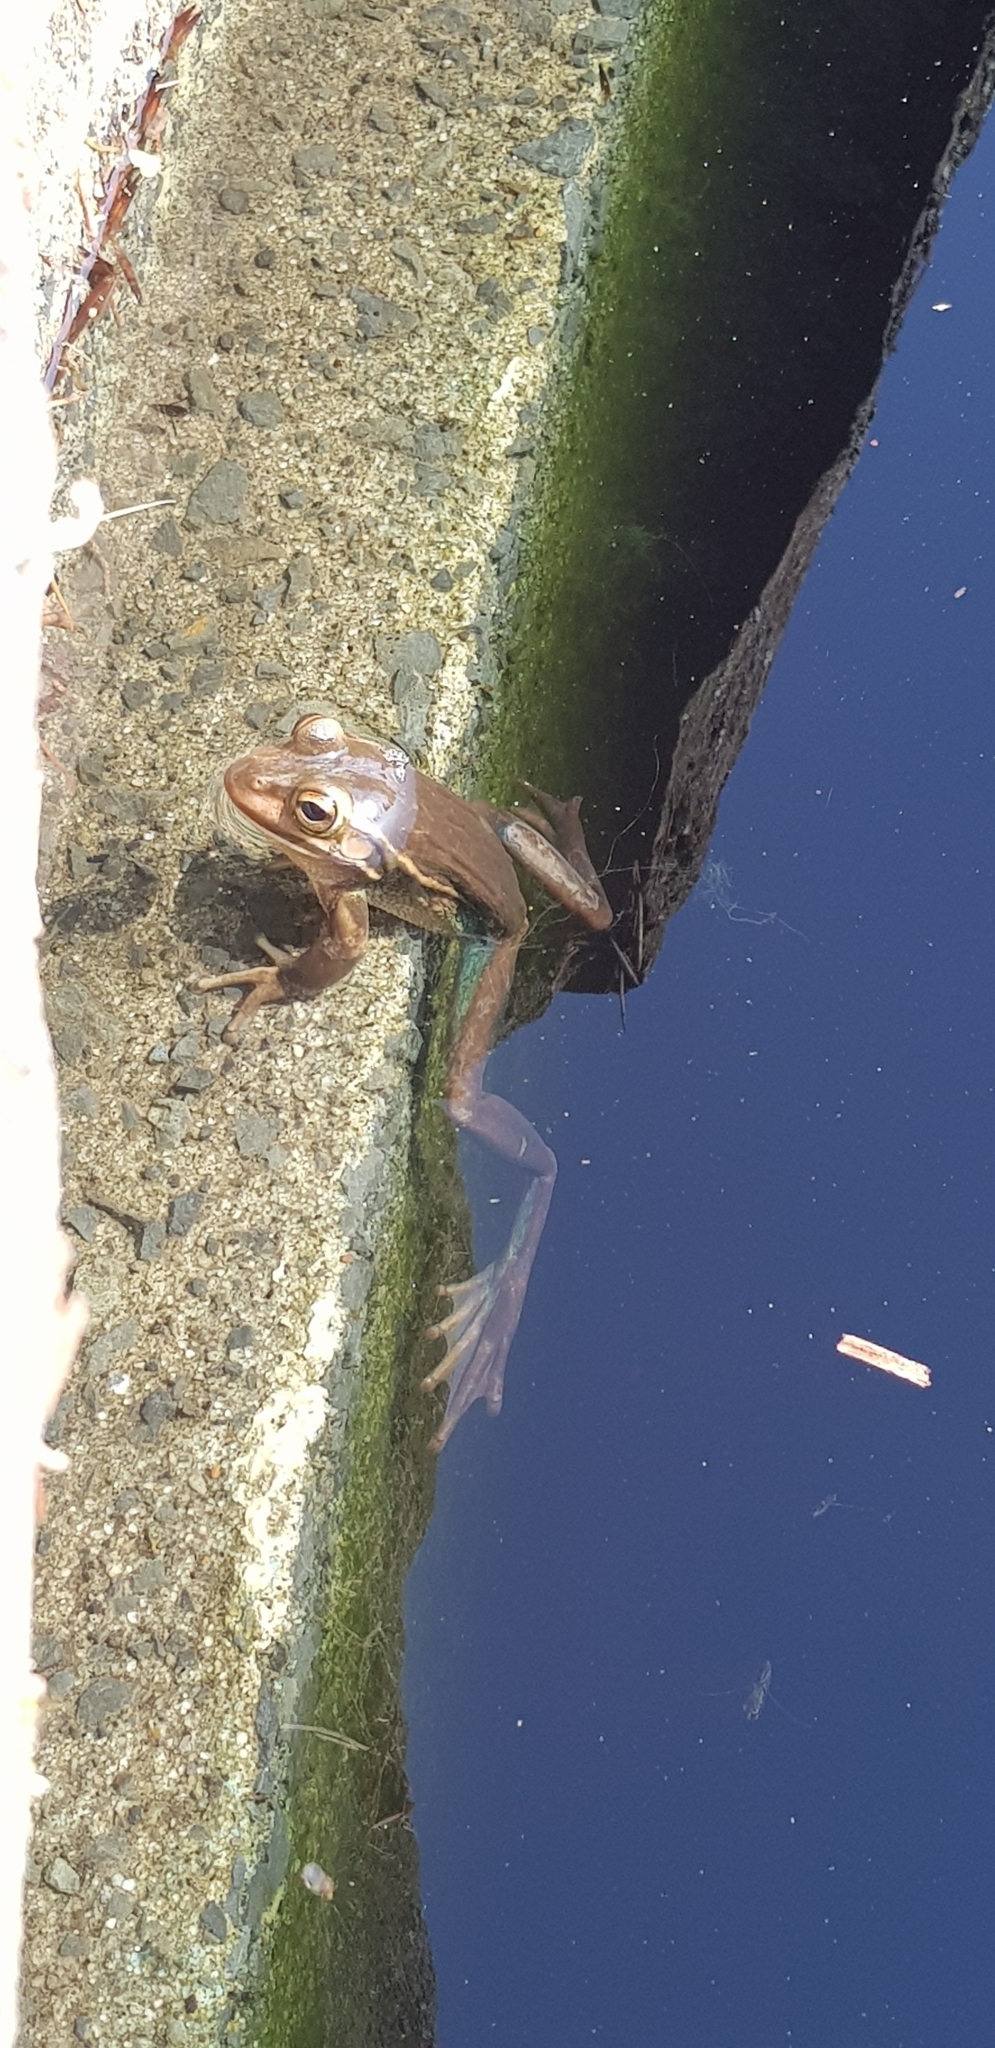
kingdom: Animalia
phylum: Chordata
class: Amphibia
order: Anura
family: Pelodryadidae
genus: Ranoidea
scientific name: Ranoidea aurea
